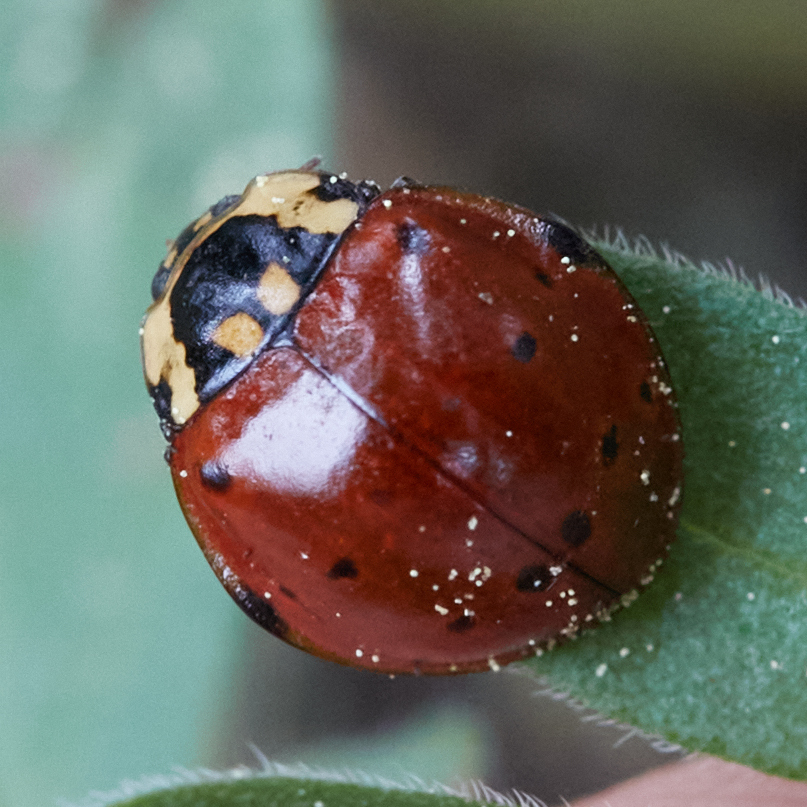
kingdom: Animalia
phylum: Arthropoda
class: Insecta
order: Coleoptera
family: Coccinellidae
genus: Anatis
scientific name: Anatis rathvoni
